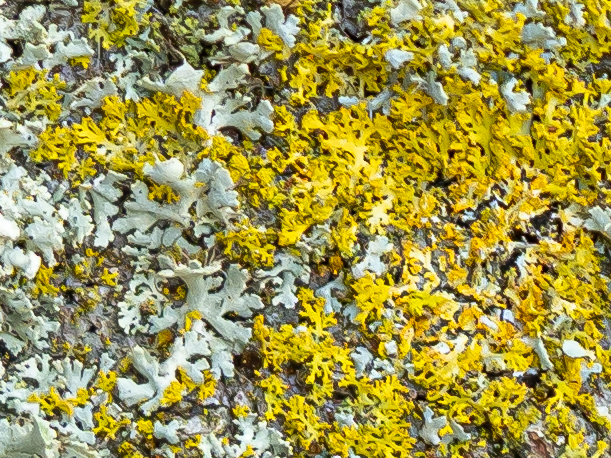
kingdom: Fungi
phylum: Ascomycota
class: Candelariomycetes
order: Candelariales
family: Candelariaceae
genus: Candelaria
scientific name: Candelaria concolor
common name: Candleflame lichen
